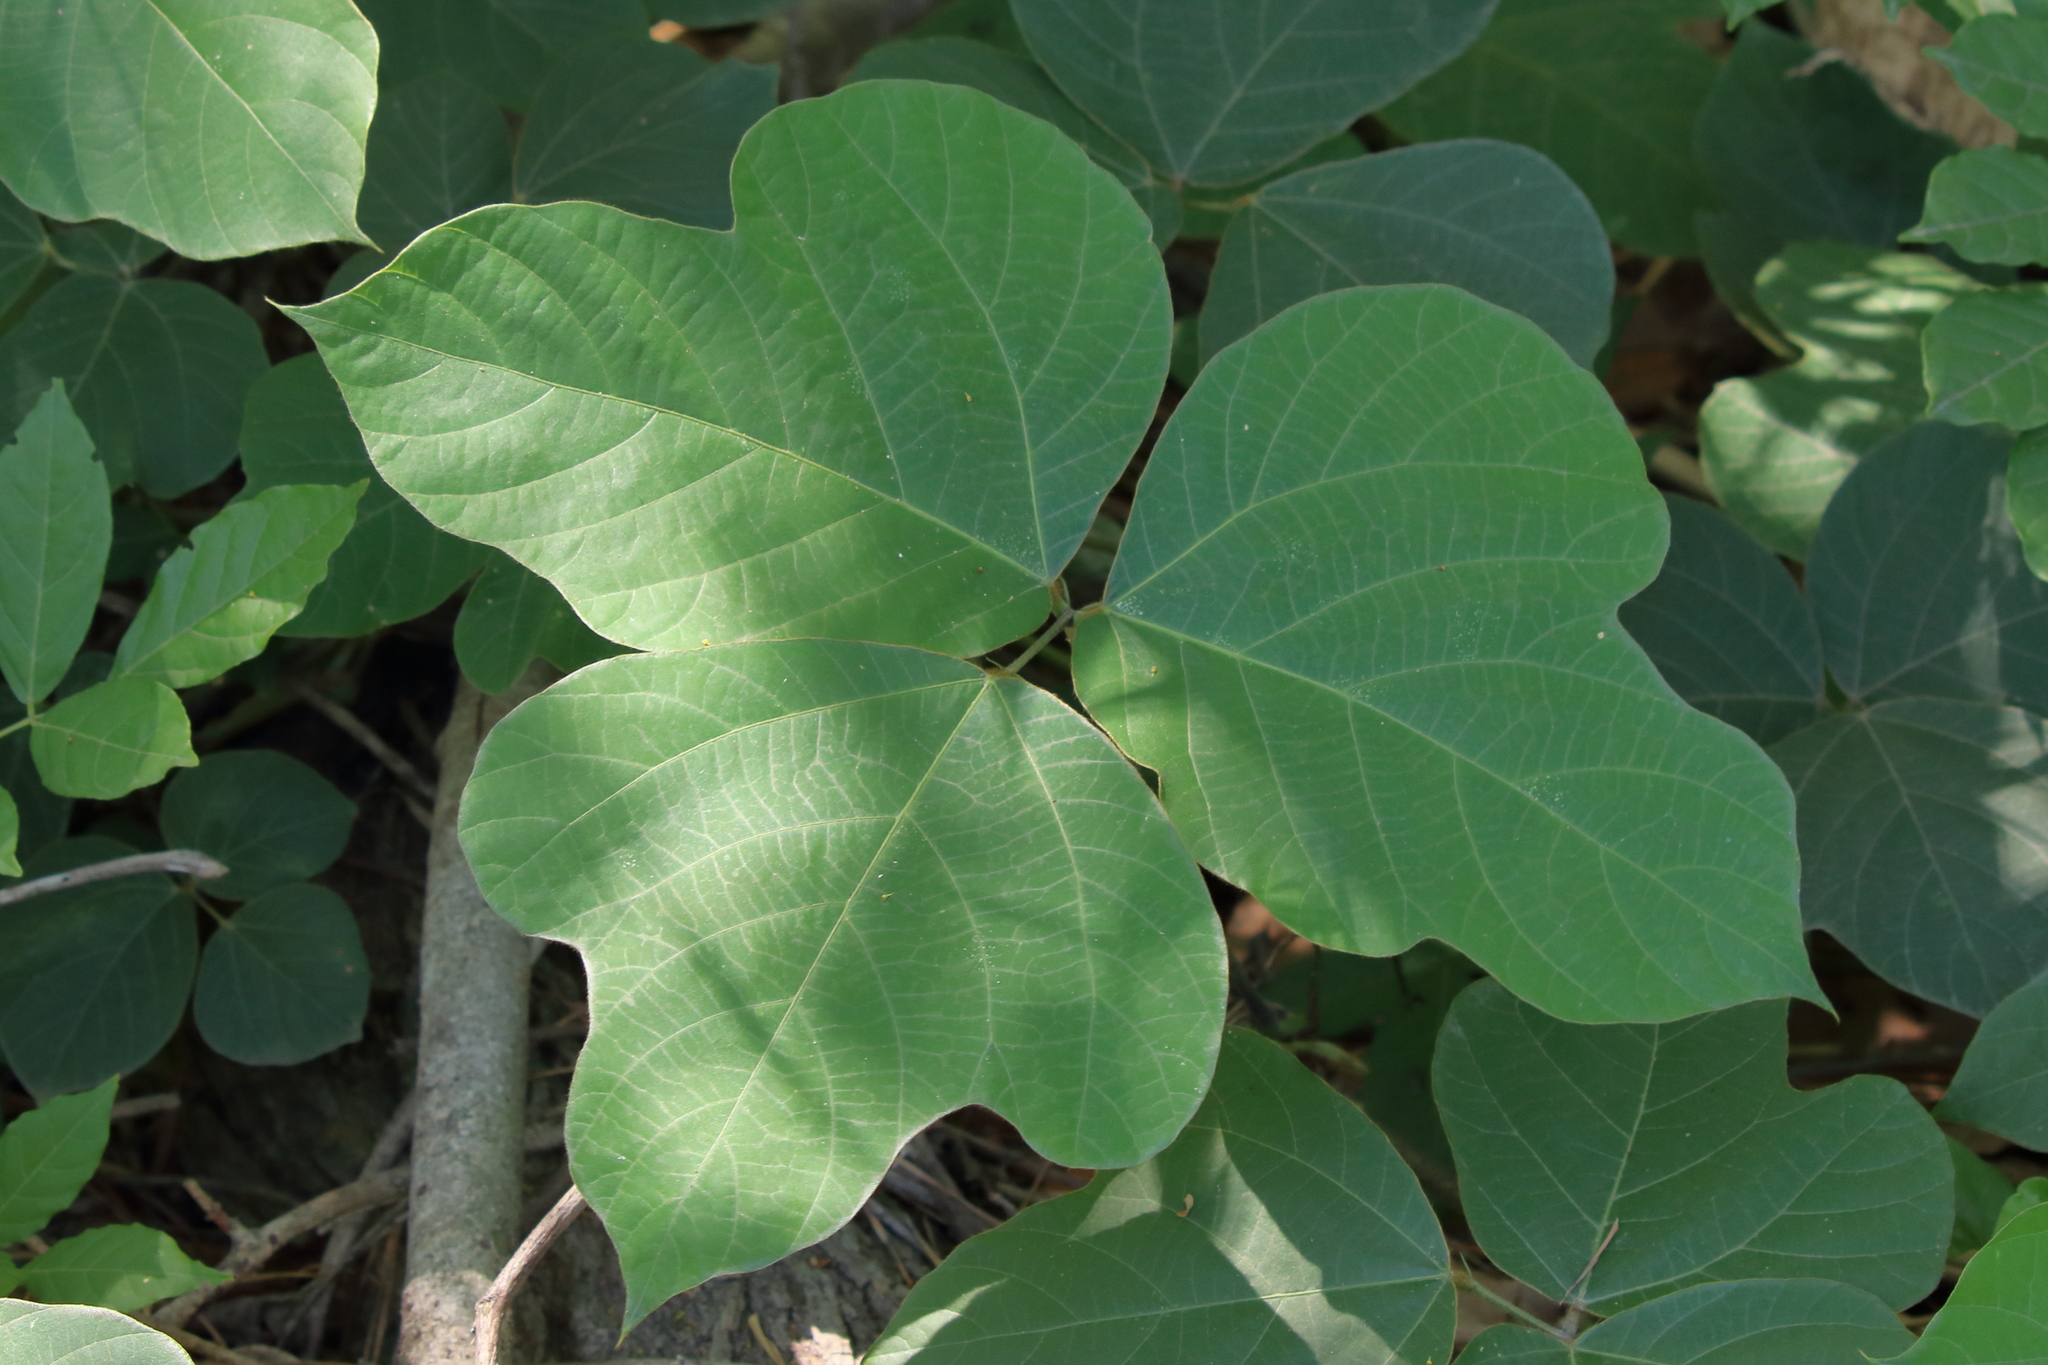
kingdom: Plantae
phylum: Tracheophyta
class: Magnoliopsida
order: Fabales
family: Fabaceae
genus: Pueraria
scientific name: Pueraria montana
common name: Kudzu
